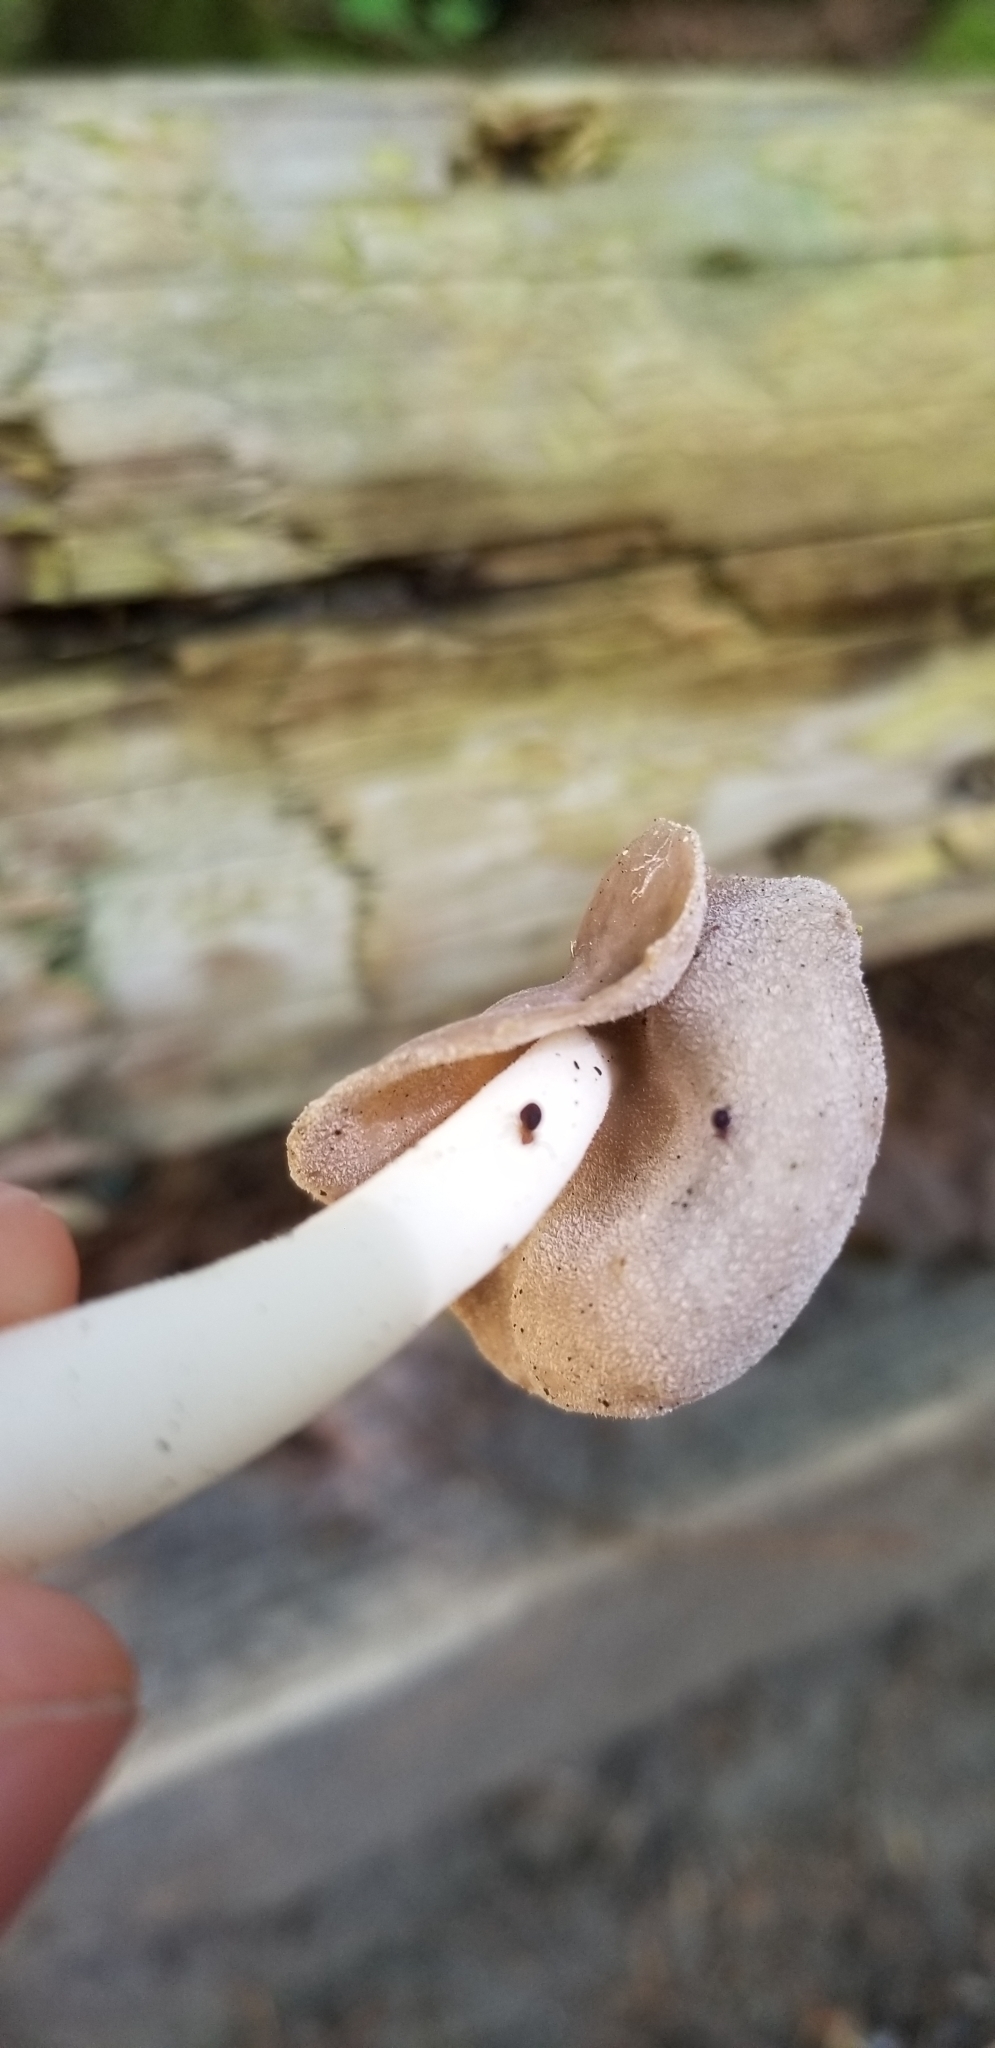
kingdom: Fungi
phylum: Ascomycota
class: Pezizomycetes
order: Pezizales
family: Helvellaceae
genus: Helvella
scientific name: Helvella compressa
